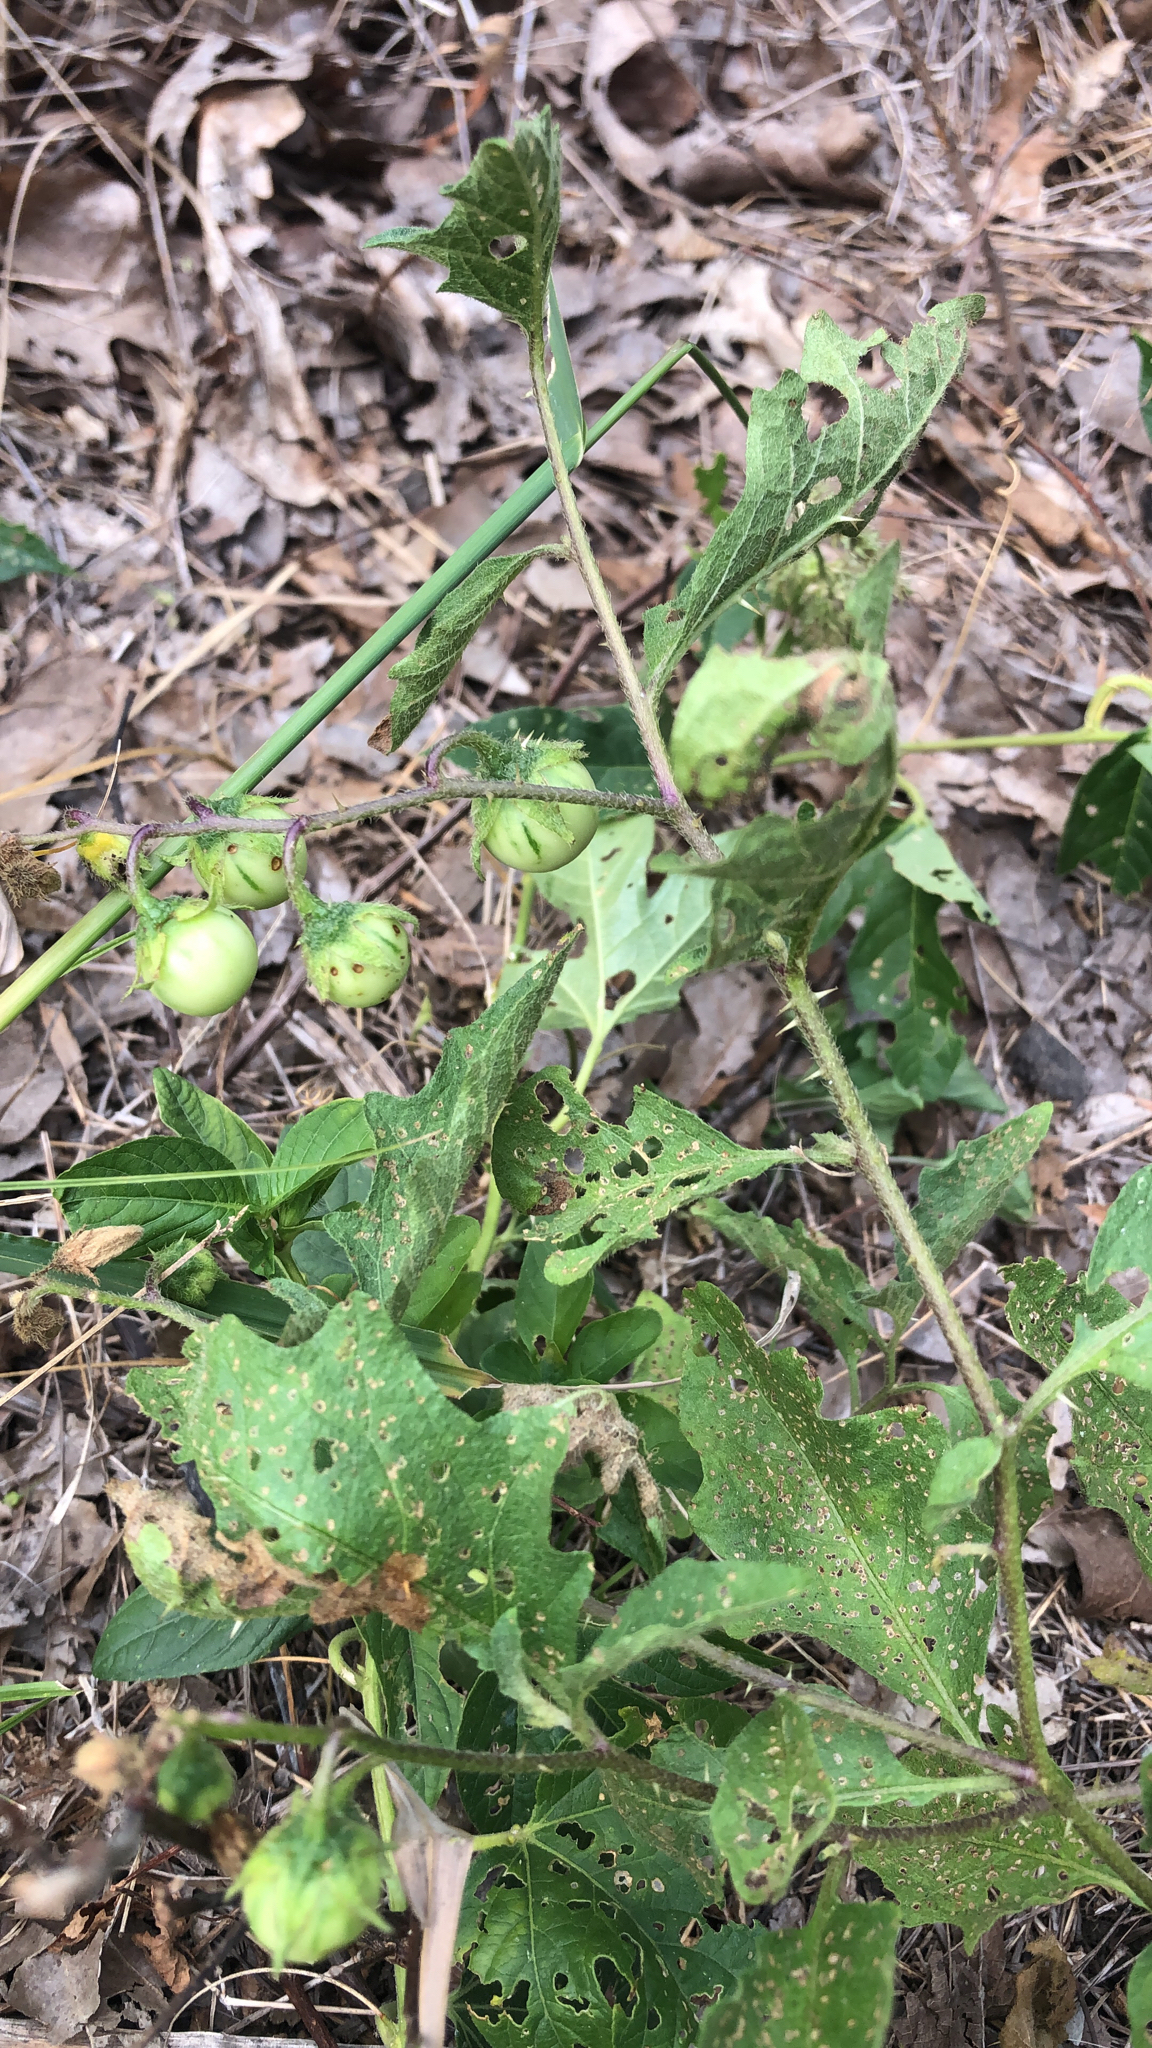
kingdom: Plantae
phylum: Tracheophyta
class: Magnoliopsida
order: Solanales
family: Solanaceae
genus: Solanum
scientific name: Solanum carolinense
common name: Horse-nettle
